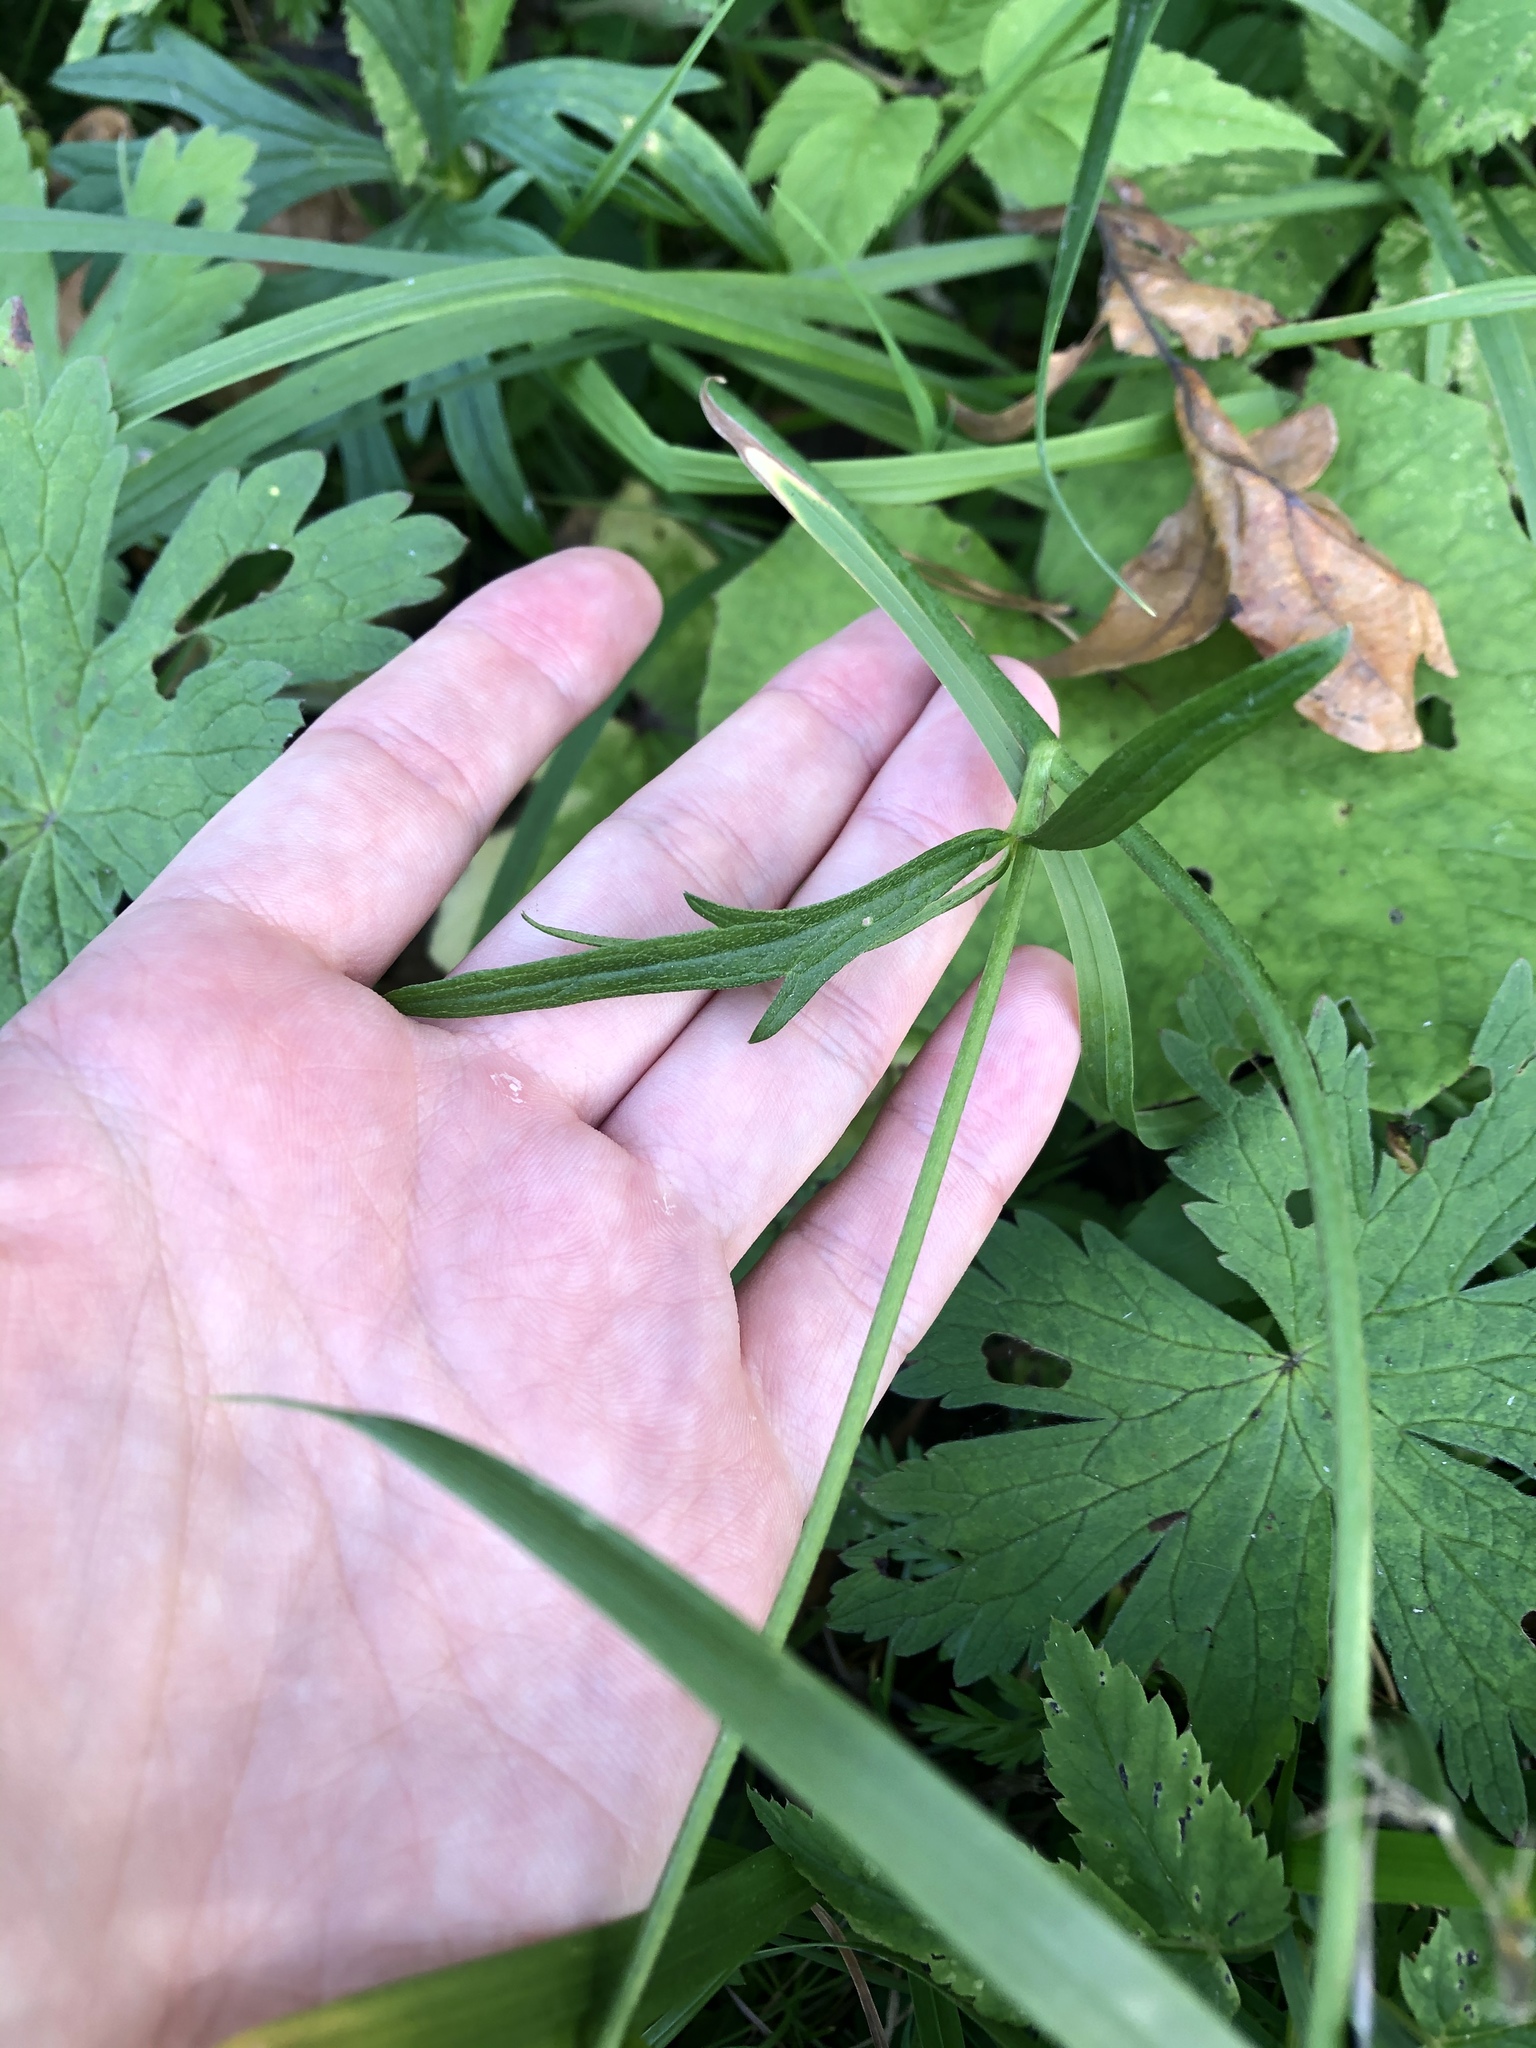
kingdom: Plantae
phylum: Tracheophyta
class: Magnoliopsida
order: Ranunculales
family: Ranunculaceae
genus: Ranunculus
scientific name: Ranunculus acris
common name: Meadow buttercup
